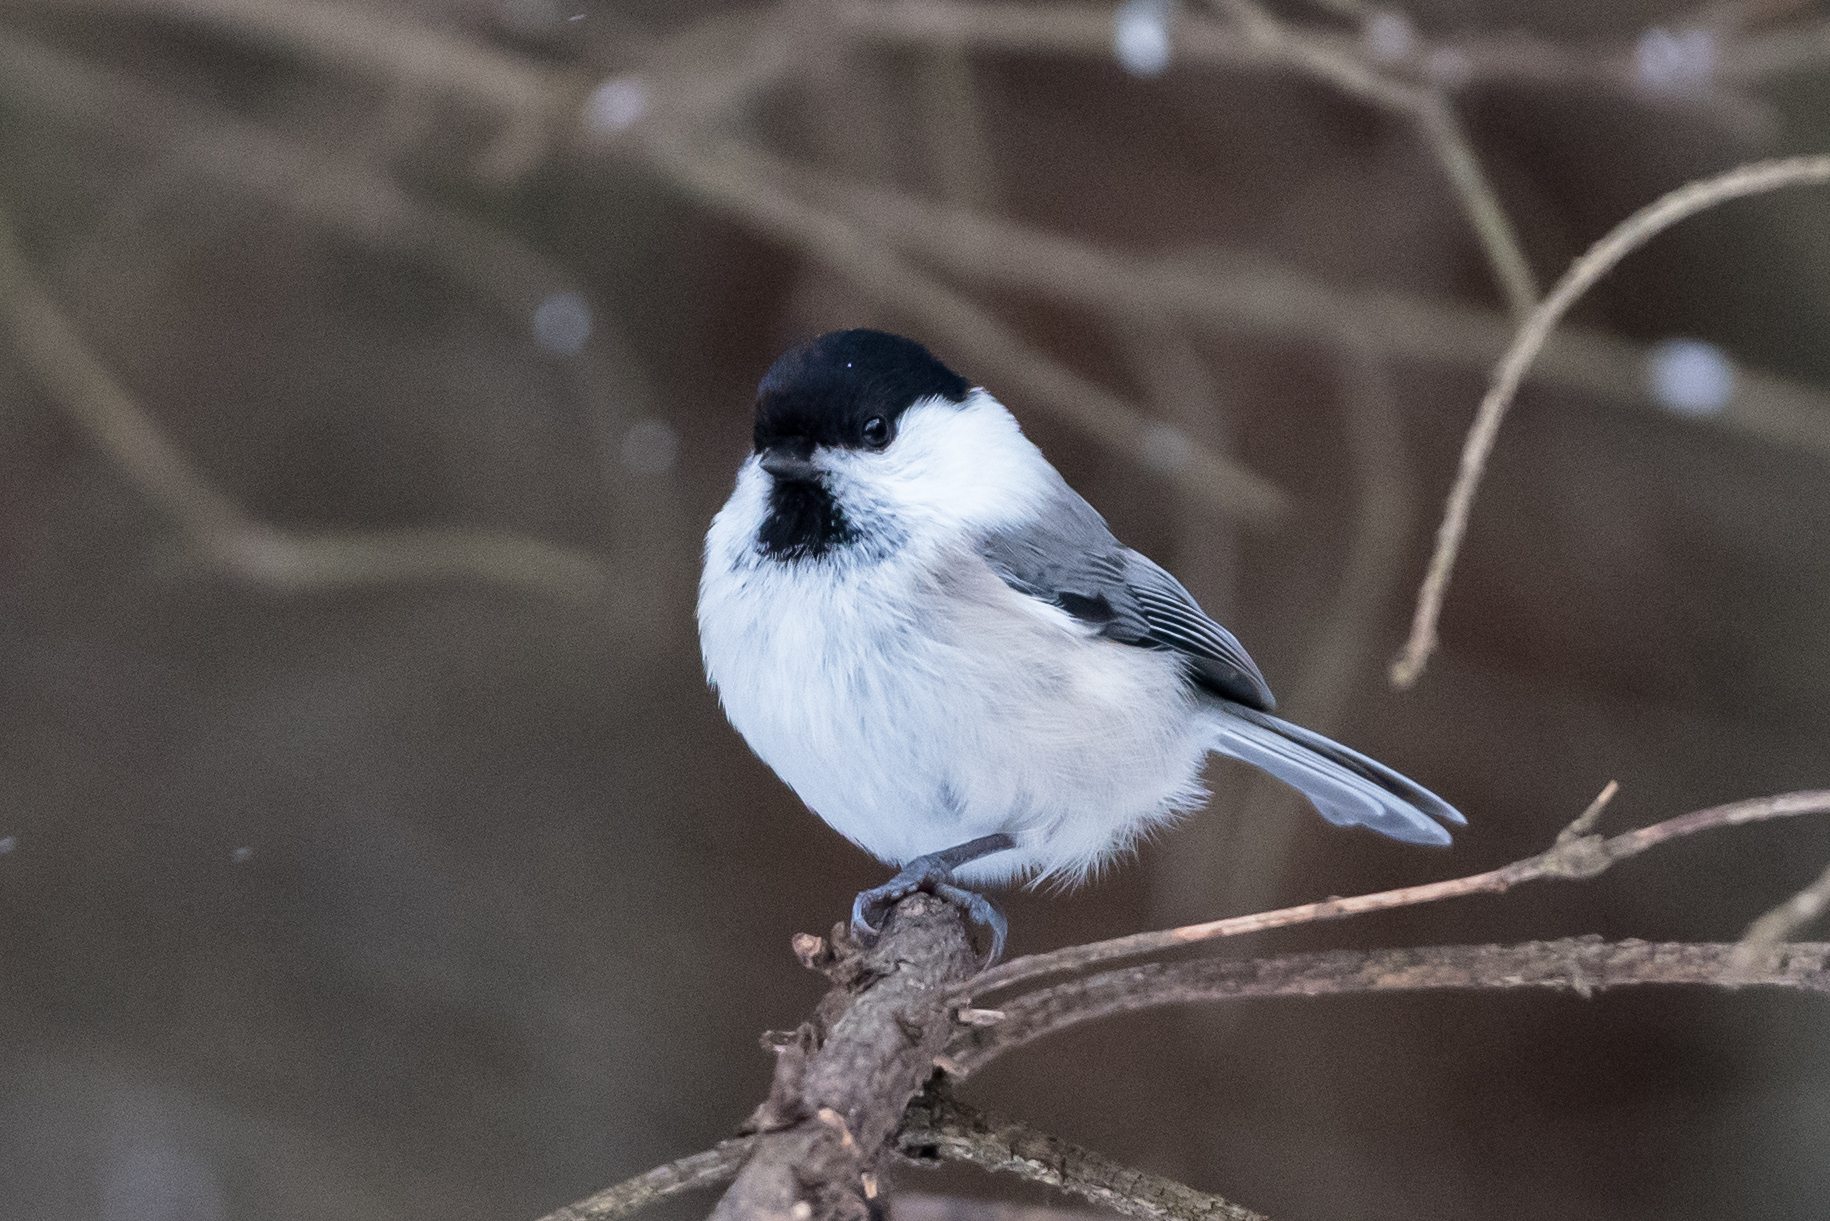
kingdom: Animalia
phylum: Chordata
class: Aves
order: Passeriformes
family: Paridae
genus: Poecile
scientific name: Poecile montanus
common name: Willow tit
